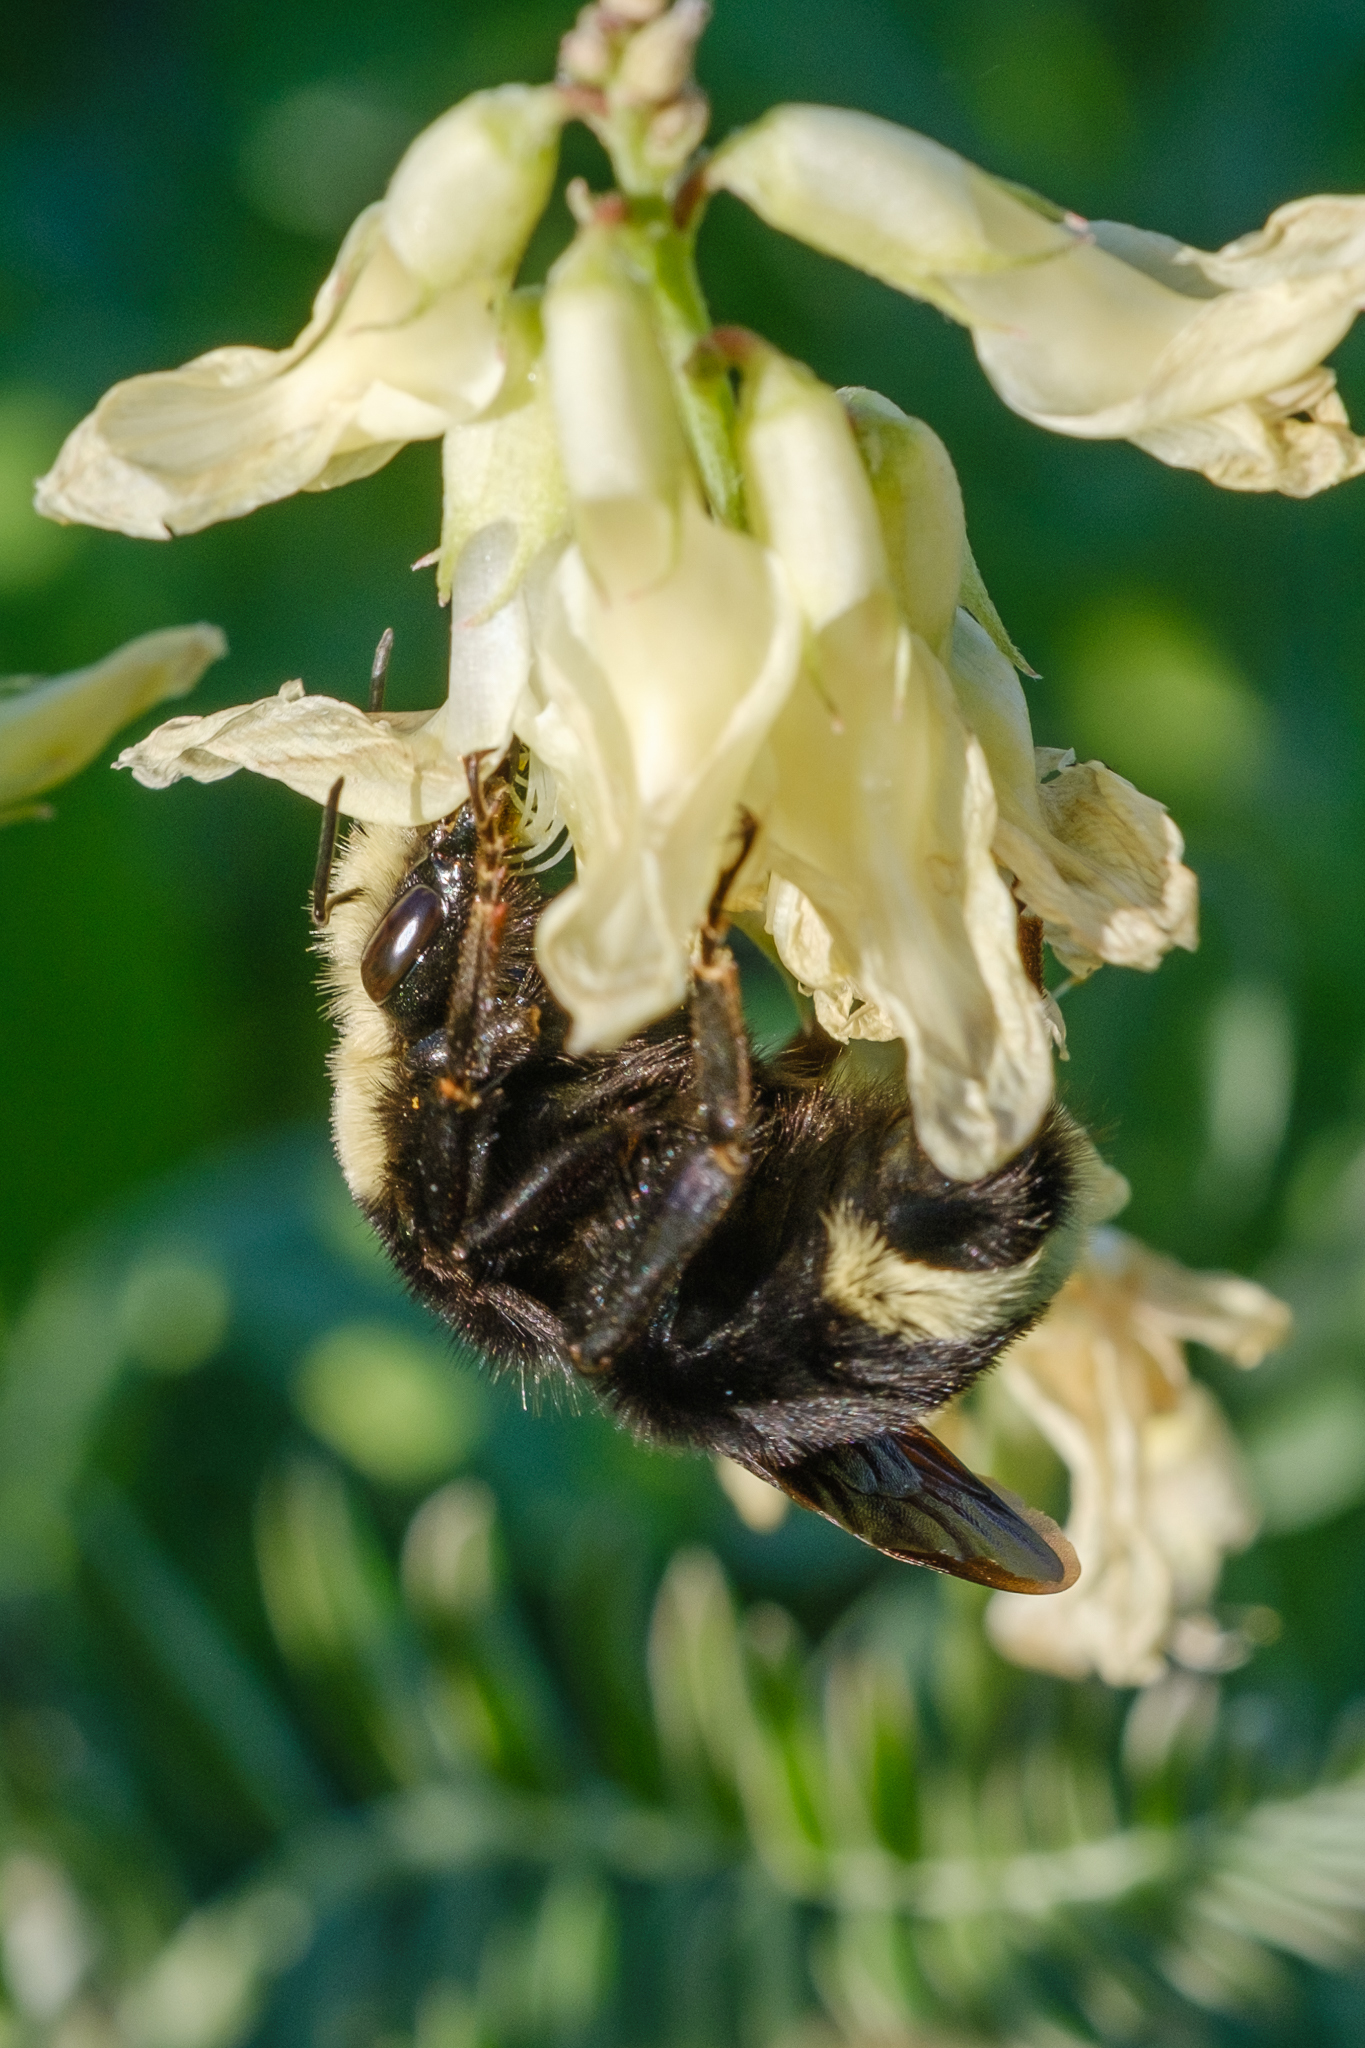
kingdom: Animalia
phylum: Arthropoda
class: Insecta
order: Hymenoptera
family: Apidae
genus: Bombus
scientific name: Bombus vosnesenskii
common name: Vosnesensky bumble bee
